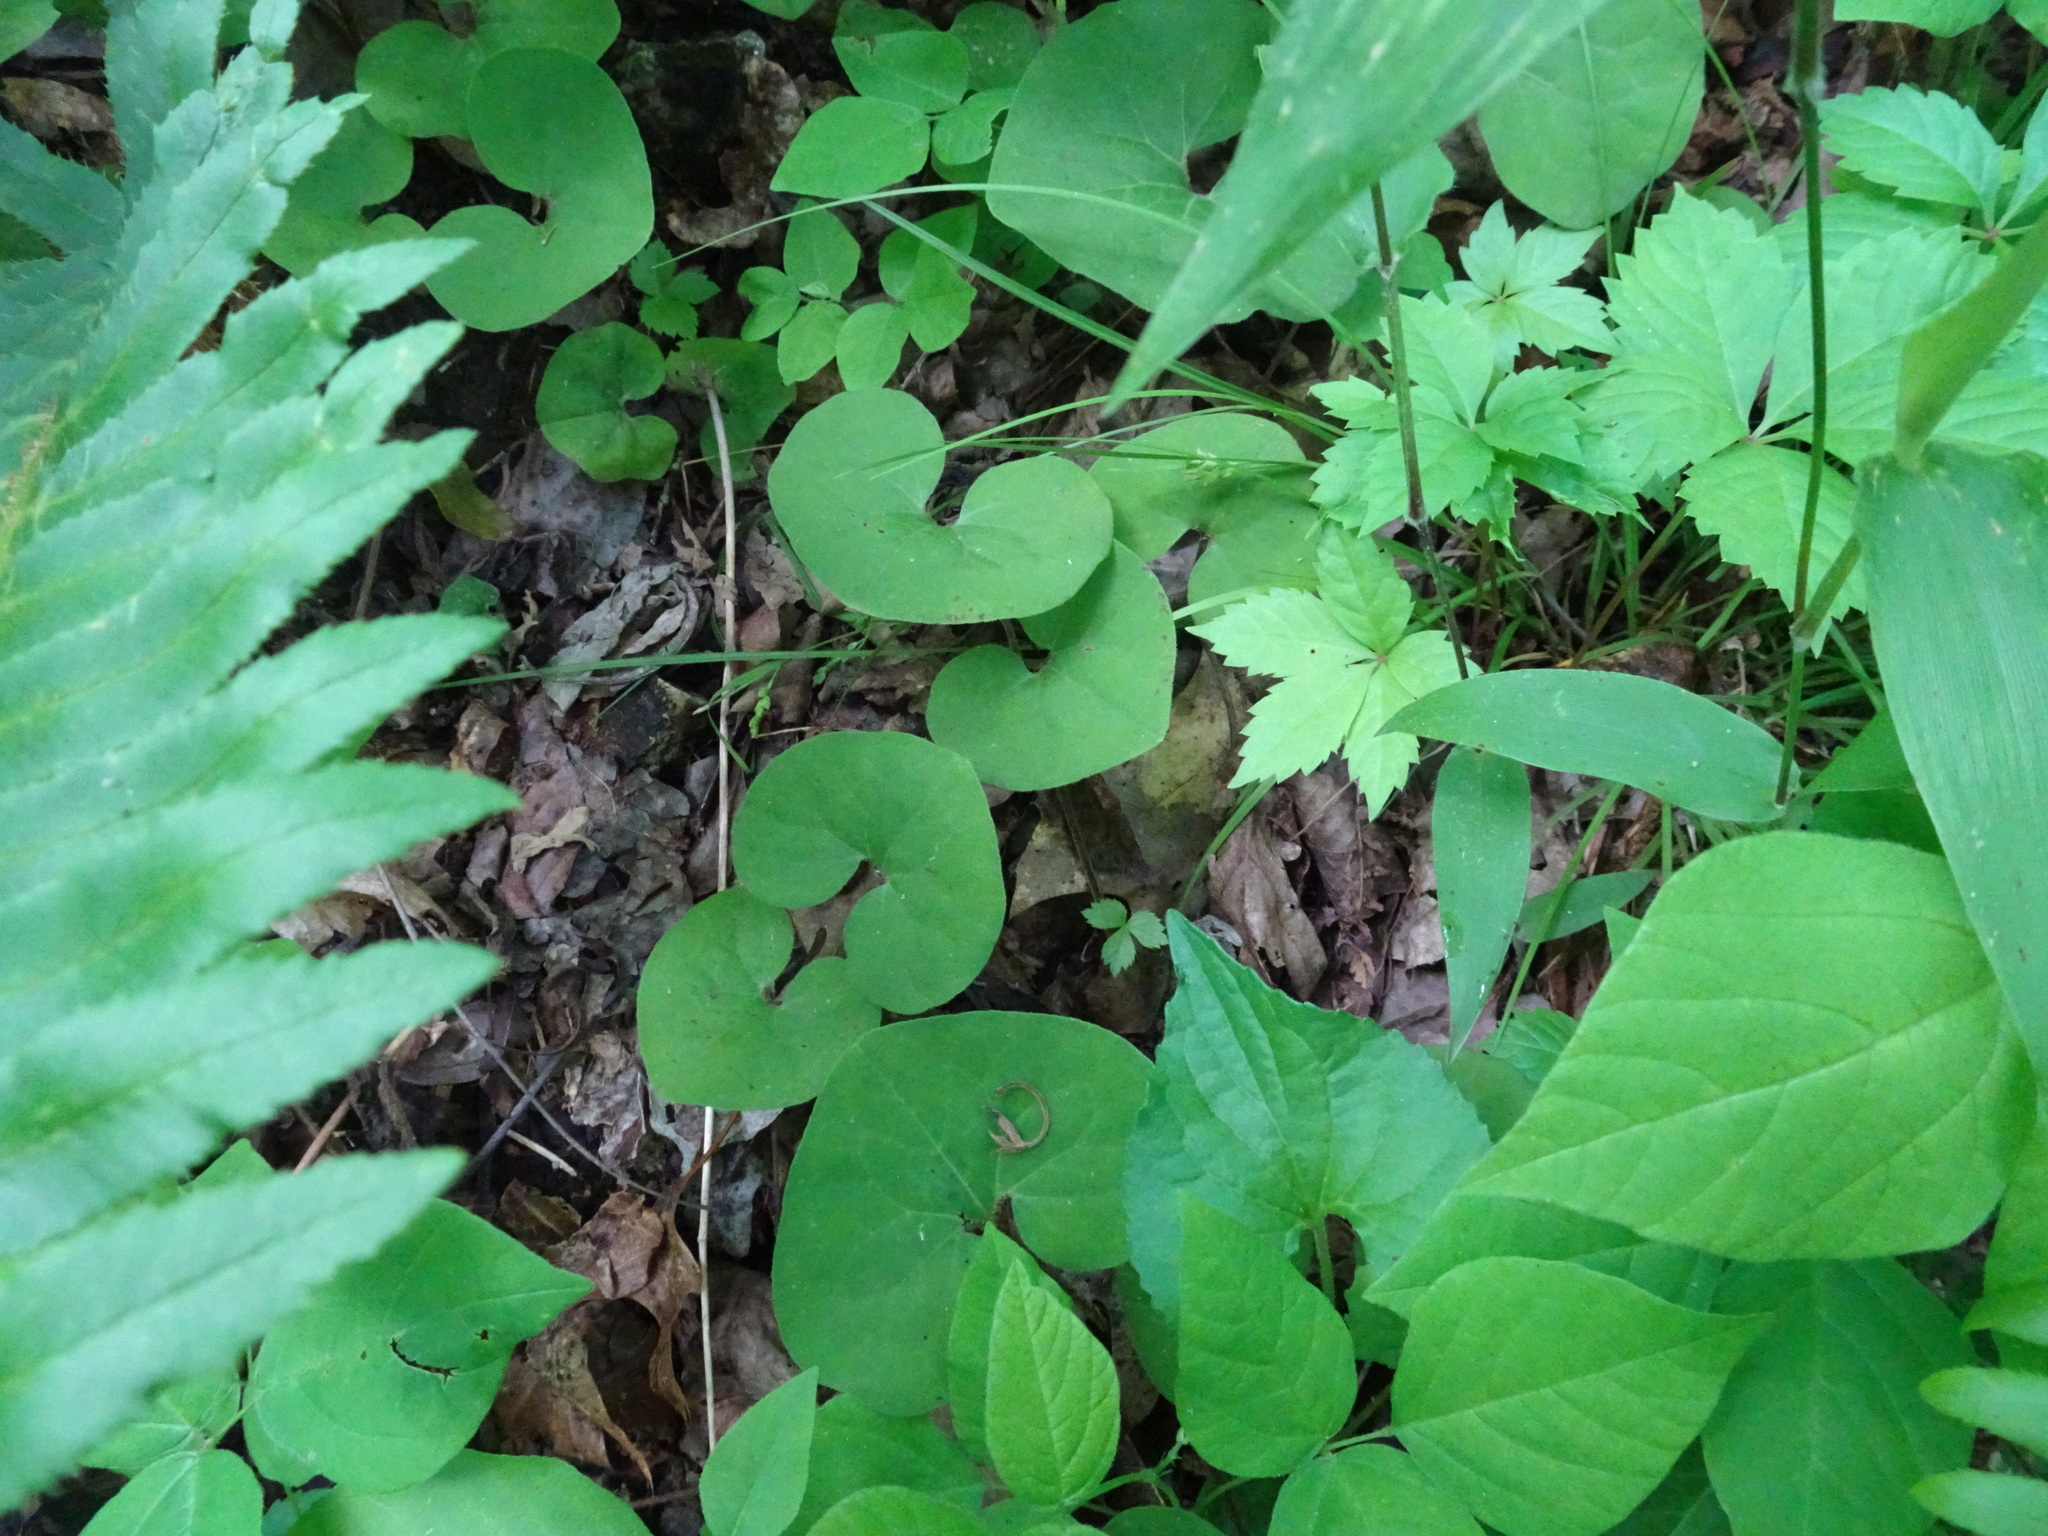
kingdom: Plantae
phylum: Tracheophyta
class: Magnoliopsida
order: Piperales
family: Aristolochiaceae
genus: Asarum
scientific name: Asarum canadense
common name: Wild ginger
